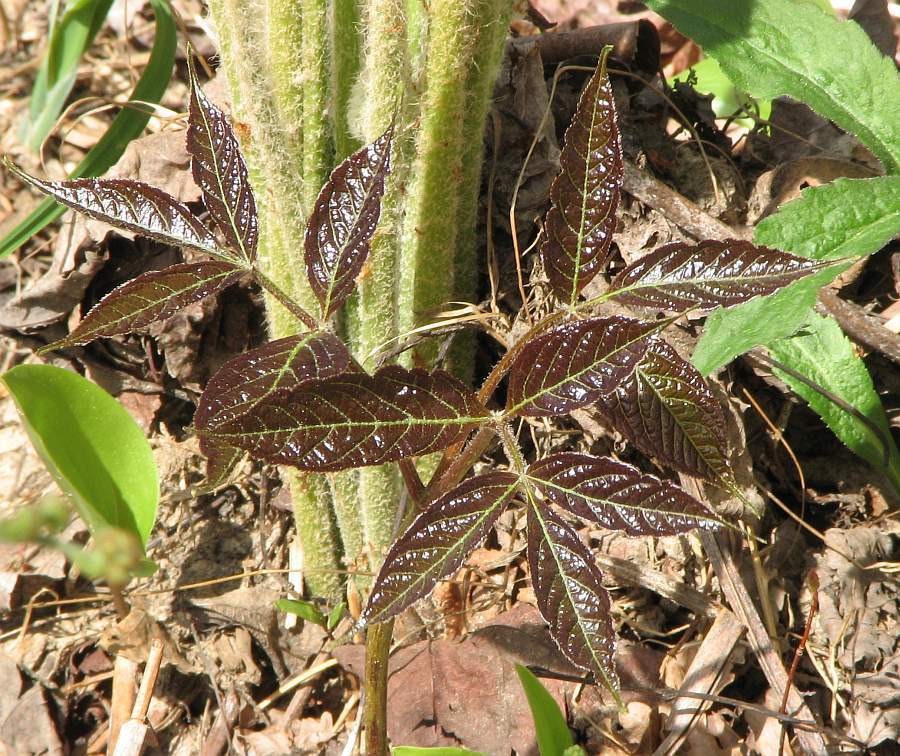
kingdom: Plantae
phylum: Tracheophyta
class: Magnoliopsida
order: Apiales
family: Araliaceae
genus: Aralia
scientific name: Aralia nudicaulis
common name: Wild sarsaparilla
